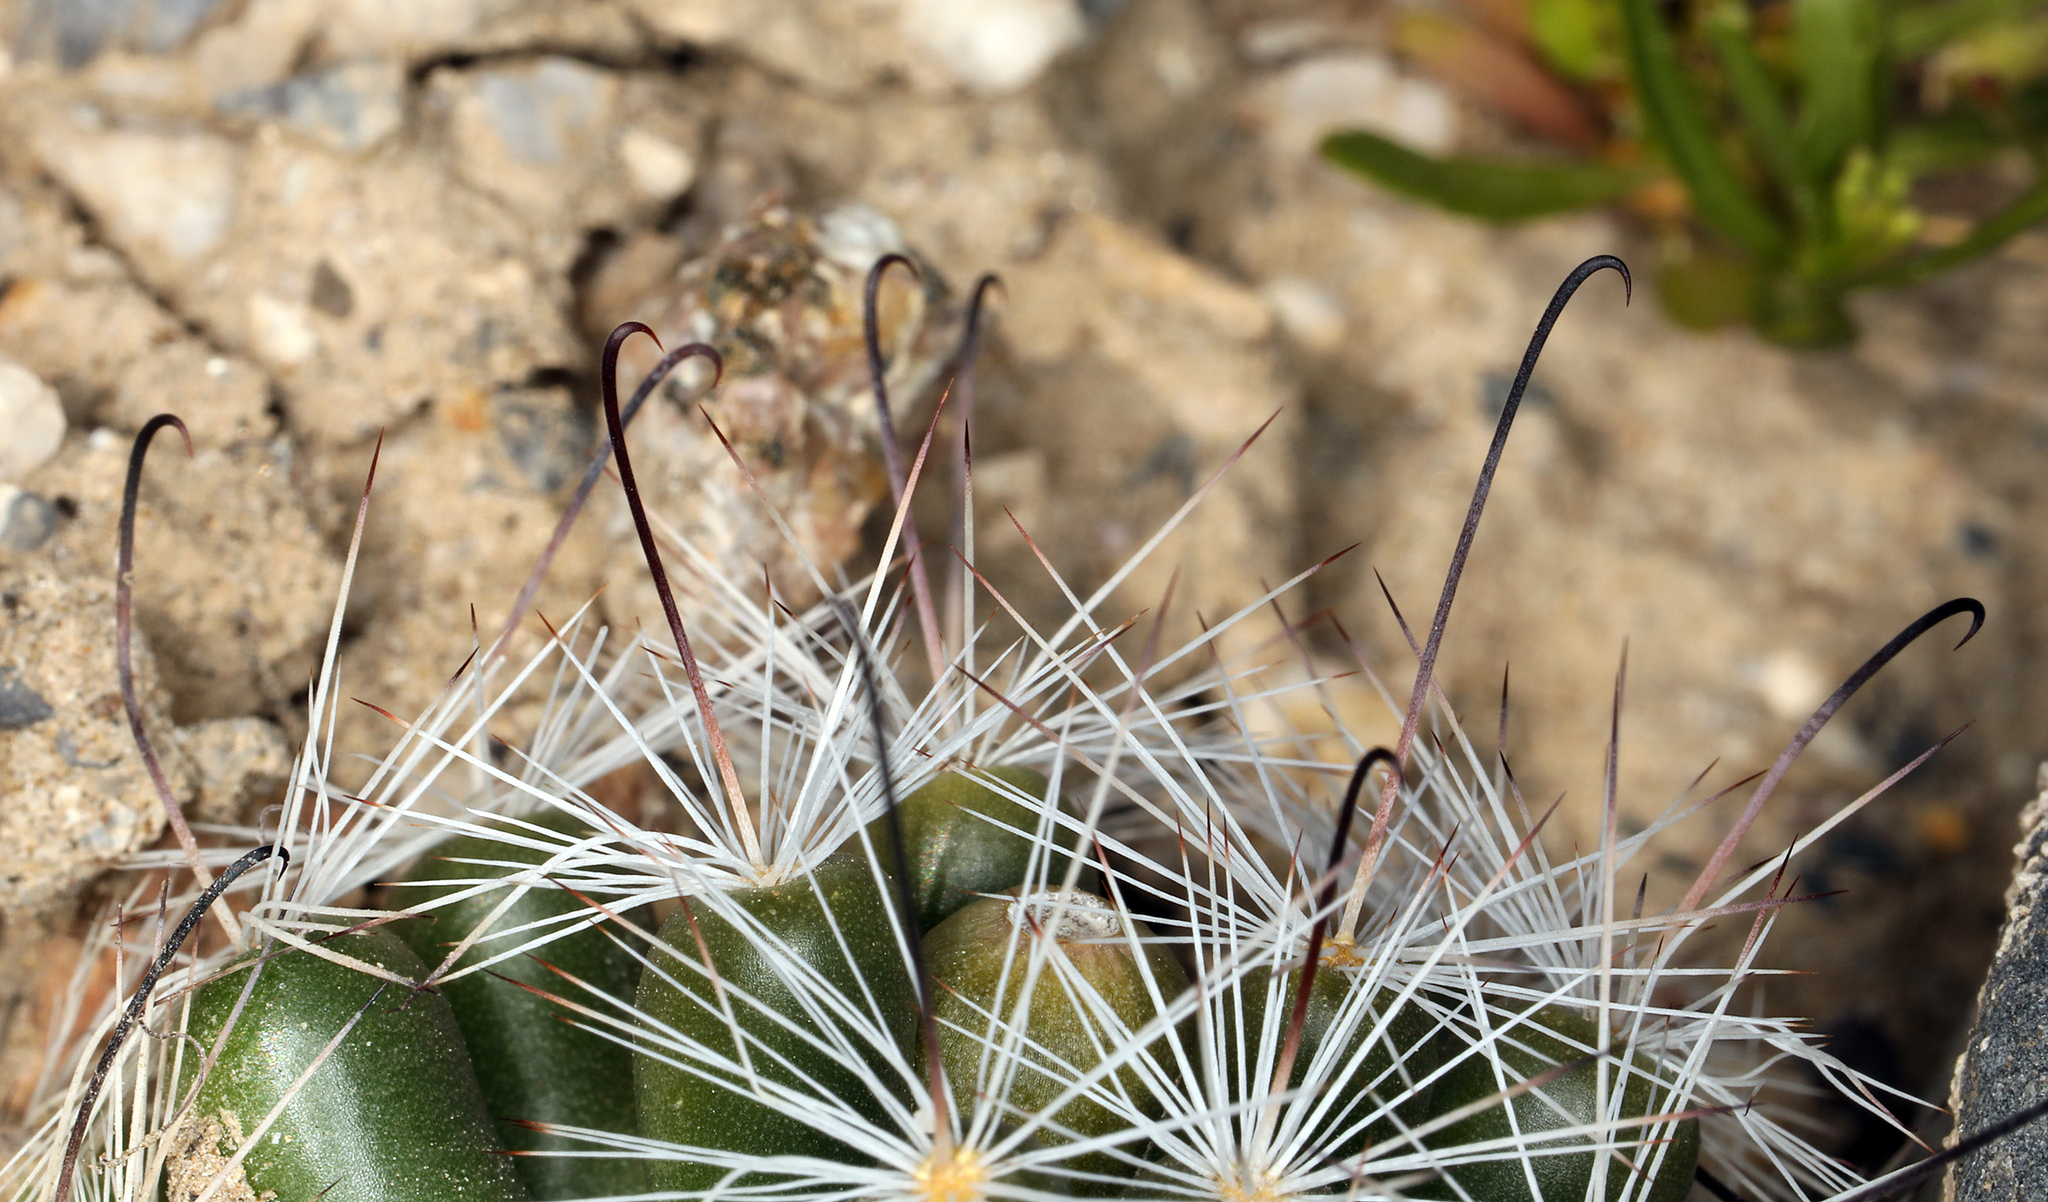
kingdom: Plantae
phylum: Tracheophyta
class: Magnoliopsida
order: Caryophyllales
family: Cactaceae
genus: Cochemiea
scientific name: Cochemiea tetrancistra
